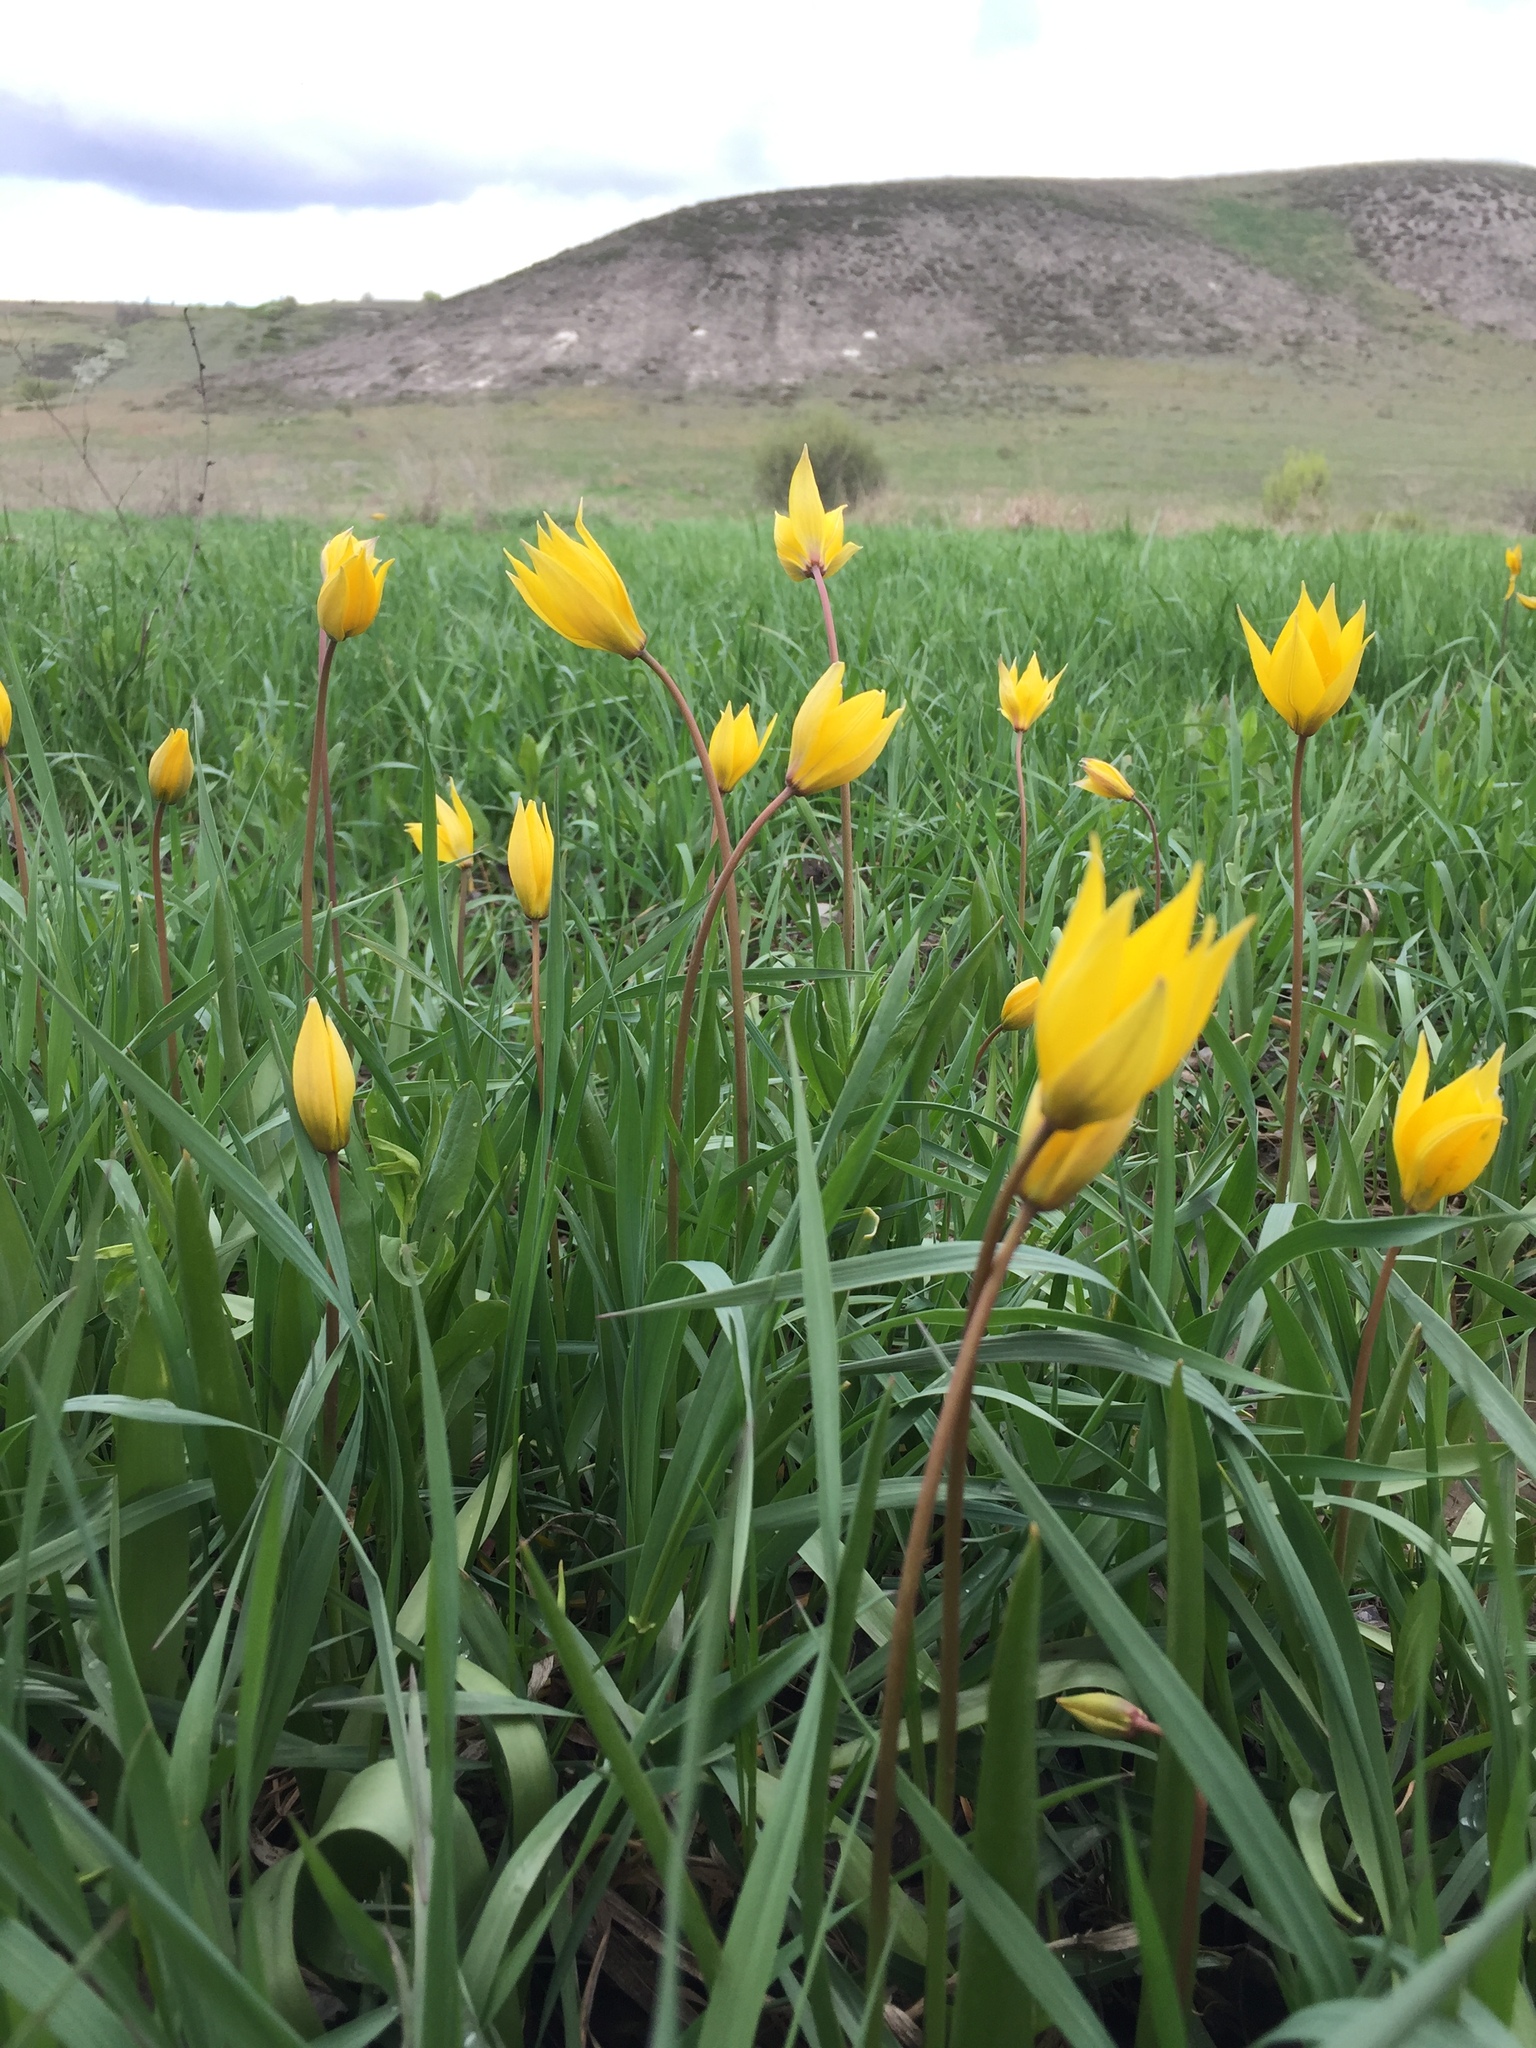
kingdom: Plantae
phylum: Tracheophyta
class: Liliopsida
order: Liliales
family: Liliaceae
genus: Tulipa
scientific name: Tulipa sylvestris
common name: Wild tulip
